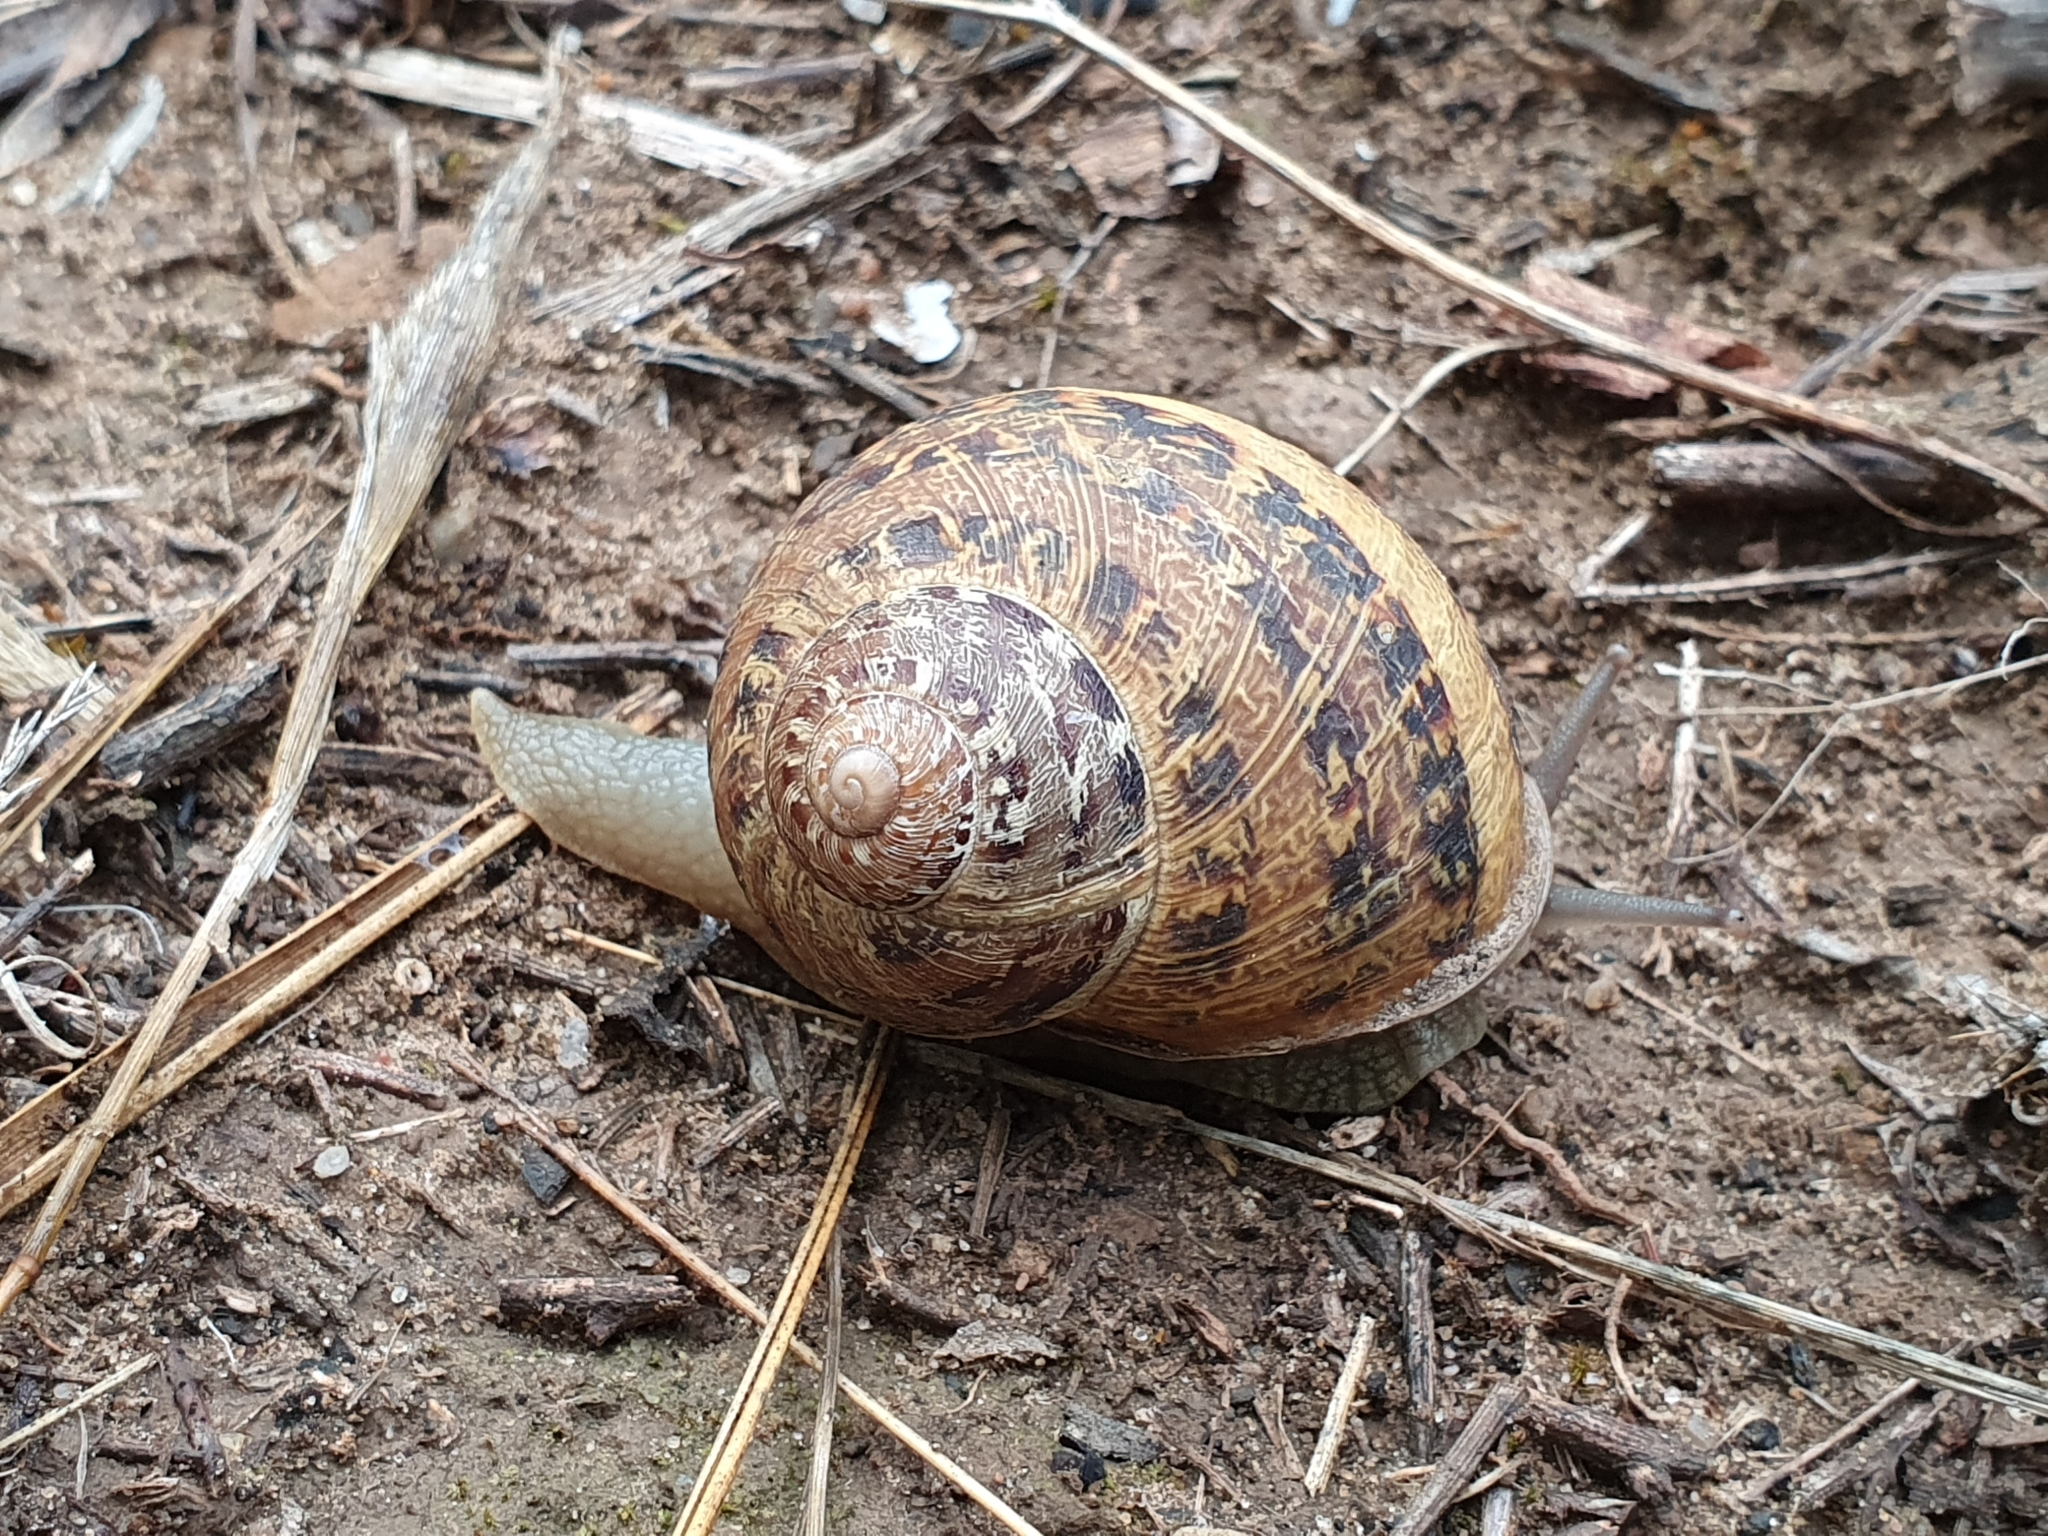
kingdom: Animalia
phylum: Mollusca
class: Gastropoda
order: Stylommatophora
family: Helicidae
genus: Cornu
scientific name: Cornu aspersum
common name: Brown garden snail
